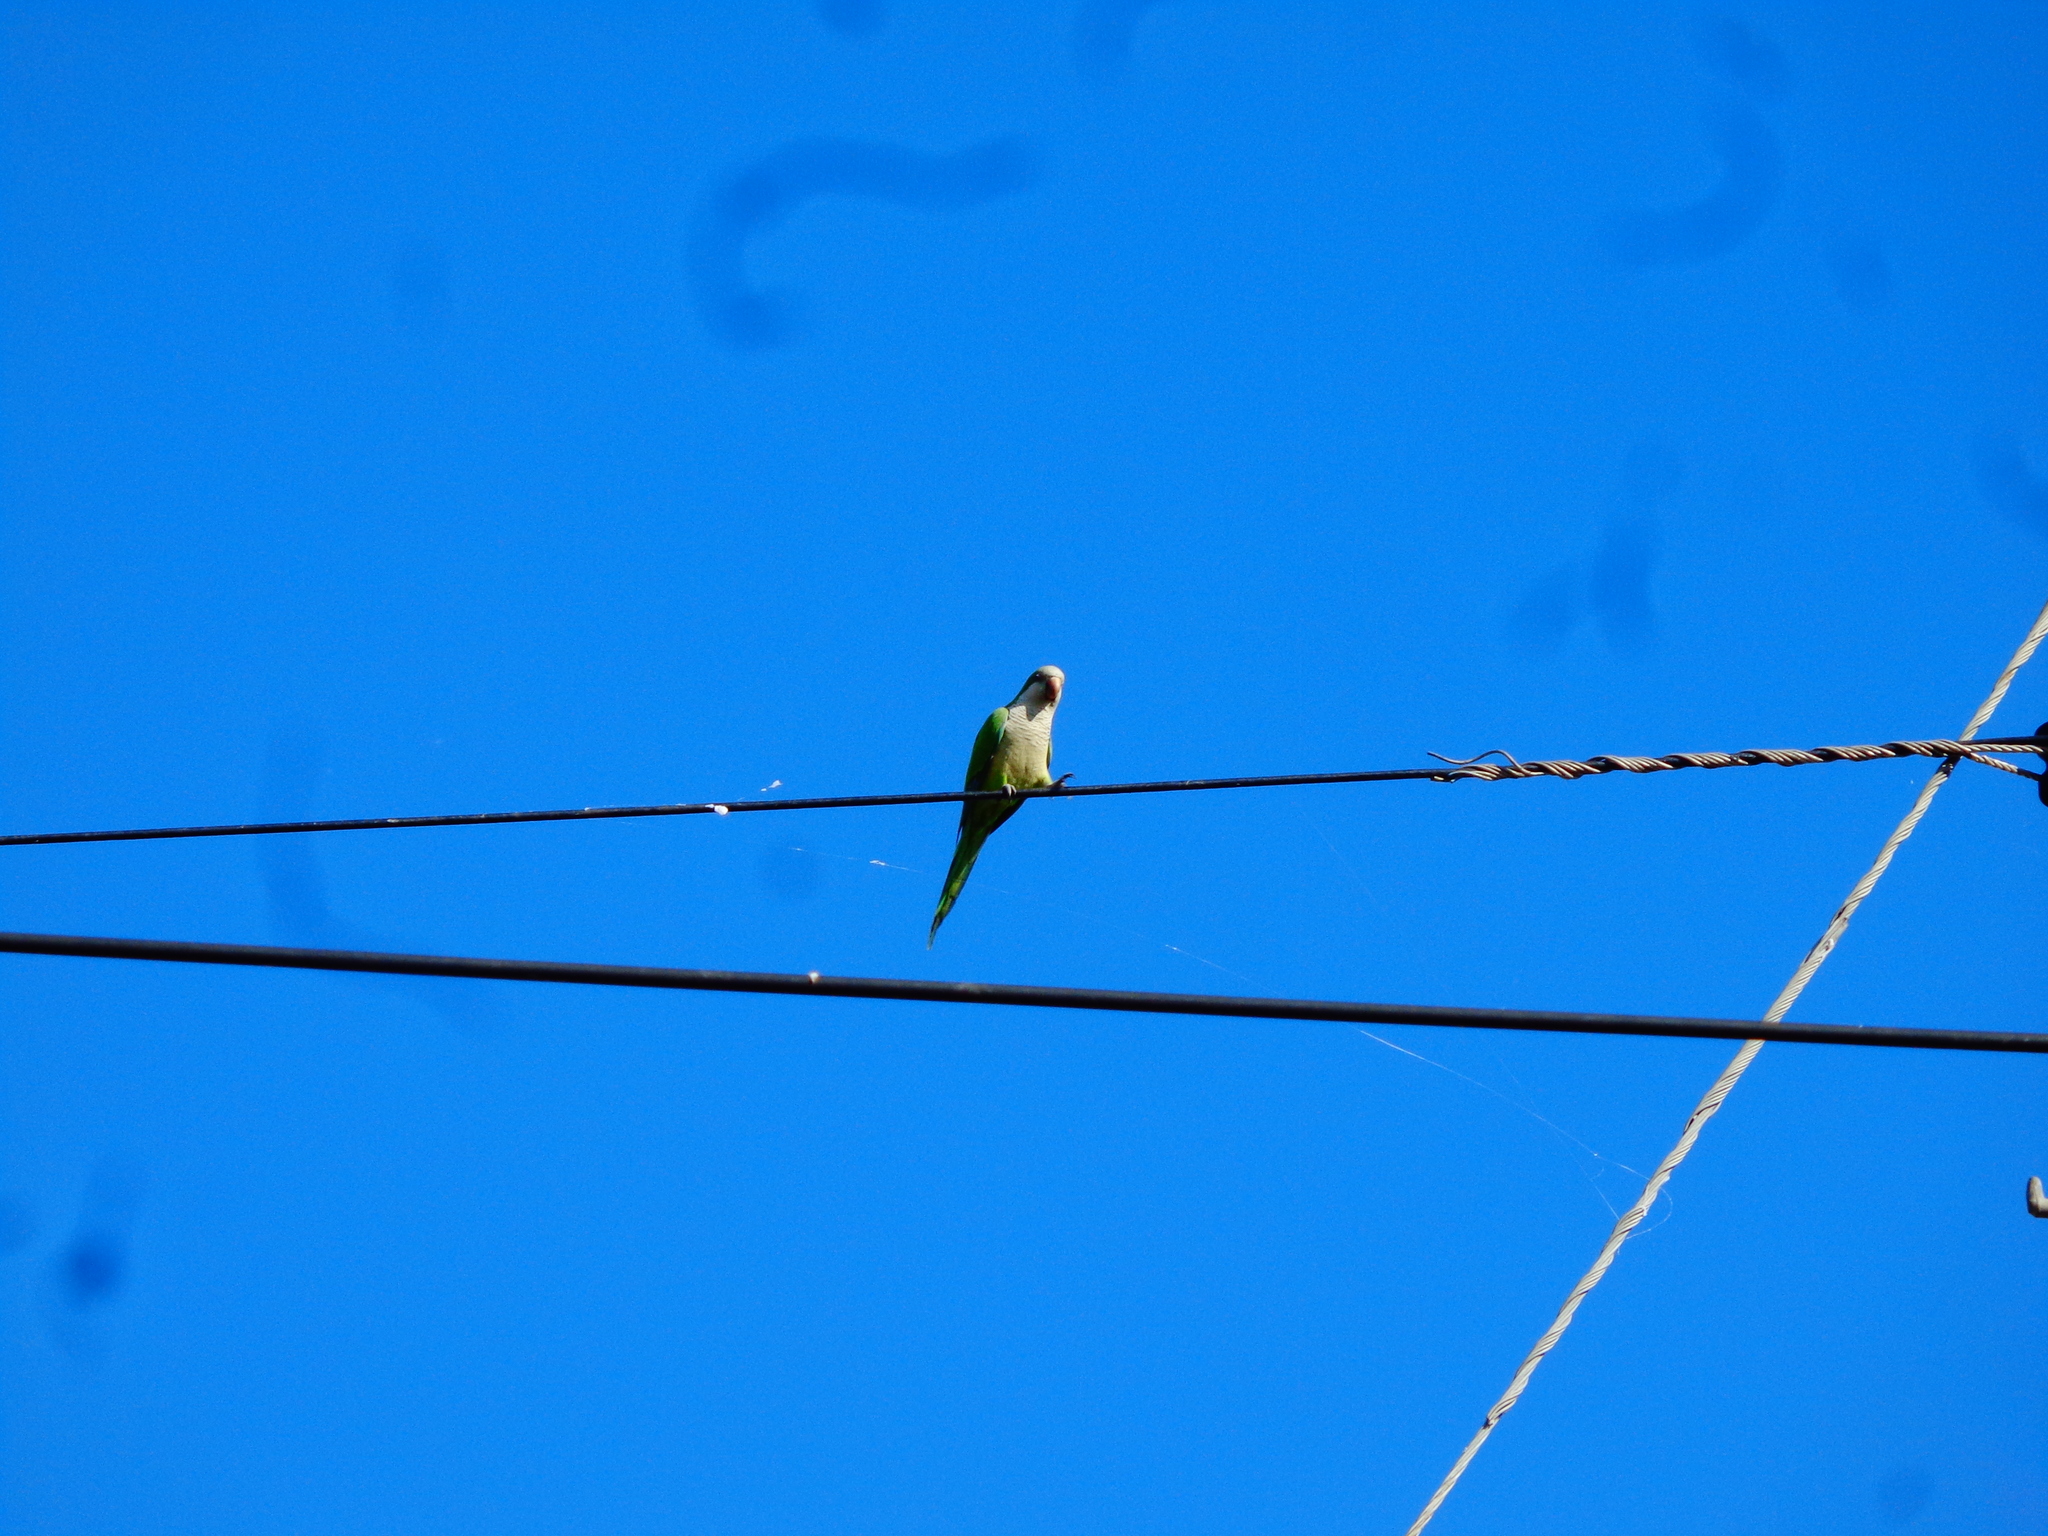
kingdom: Animalia
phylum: Chordata
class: Aves
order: Psittaciformes
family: Psittacidae
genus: Myiopsitta
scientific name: Myiopsitta monachus
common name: Monk parakeet
